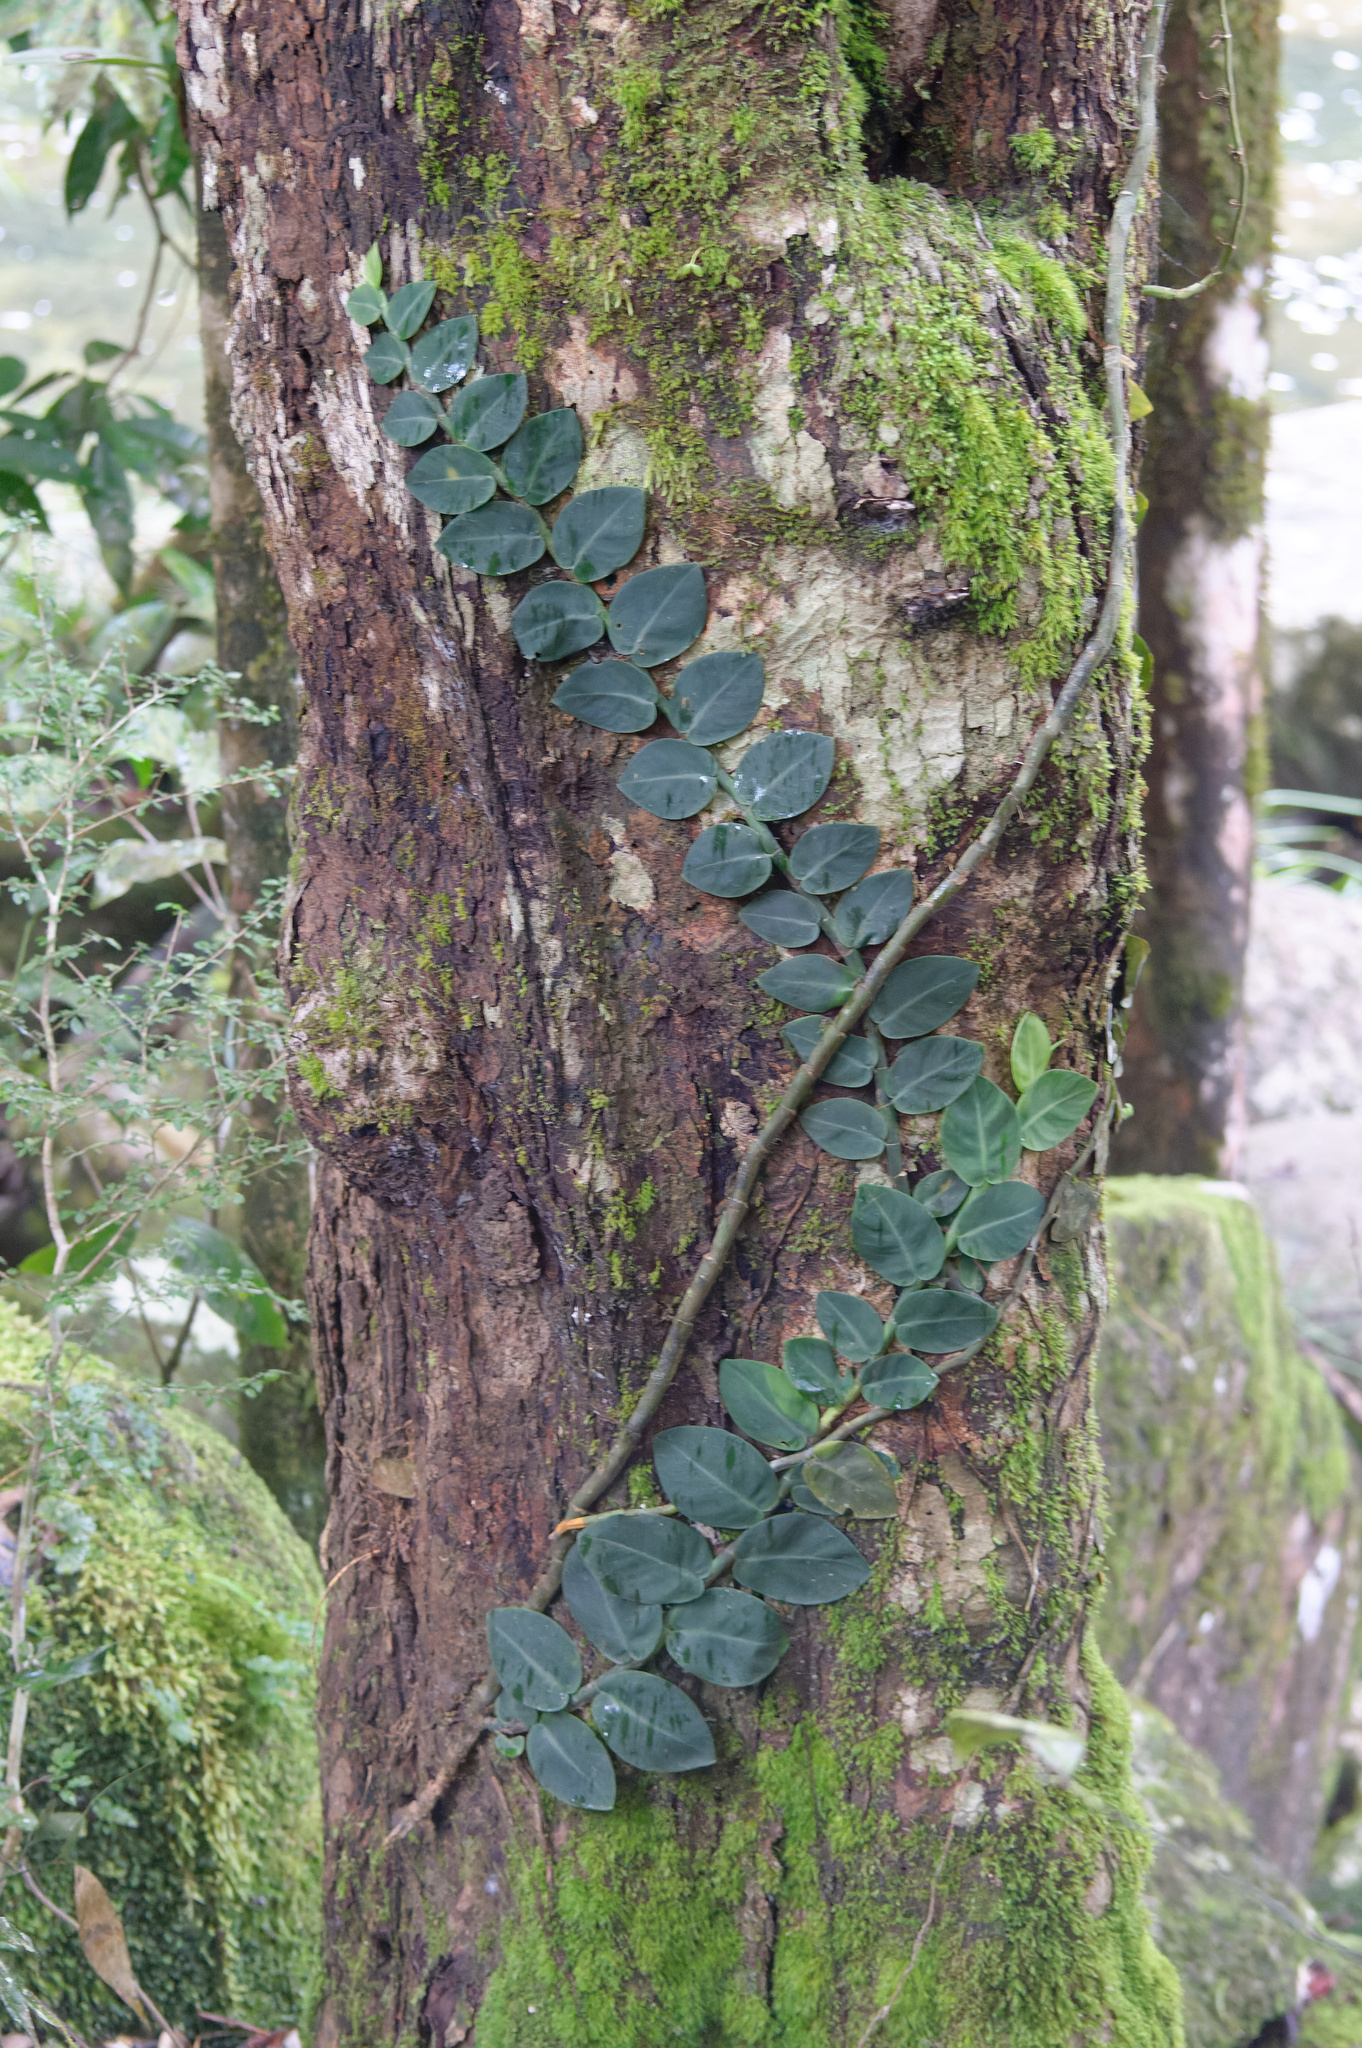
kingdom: Plantae
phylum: Tracheophyta
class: Liliopsida
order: Alismatales
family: Araceae
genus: Rhaphidophora
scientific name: Rhaphidophora hayi
